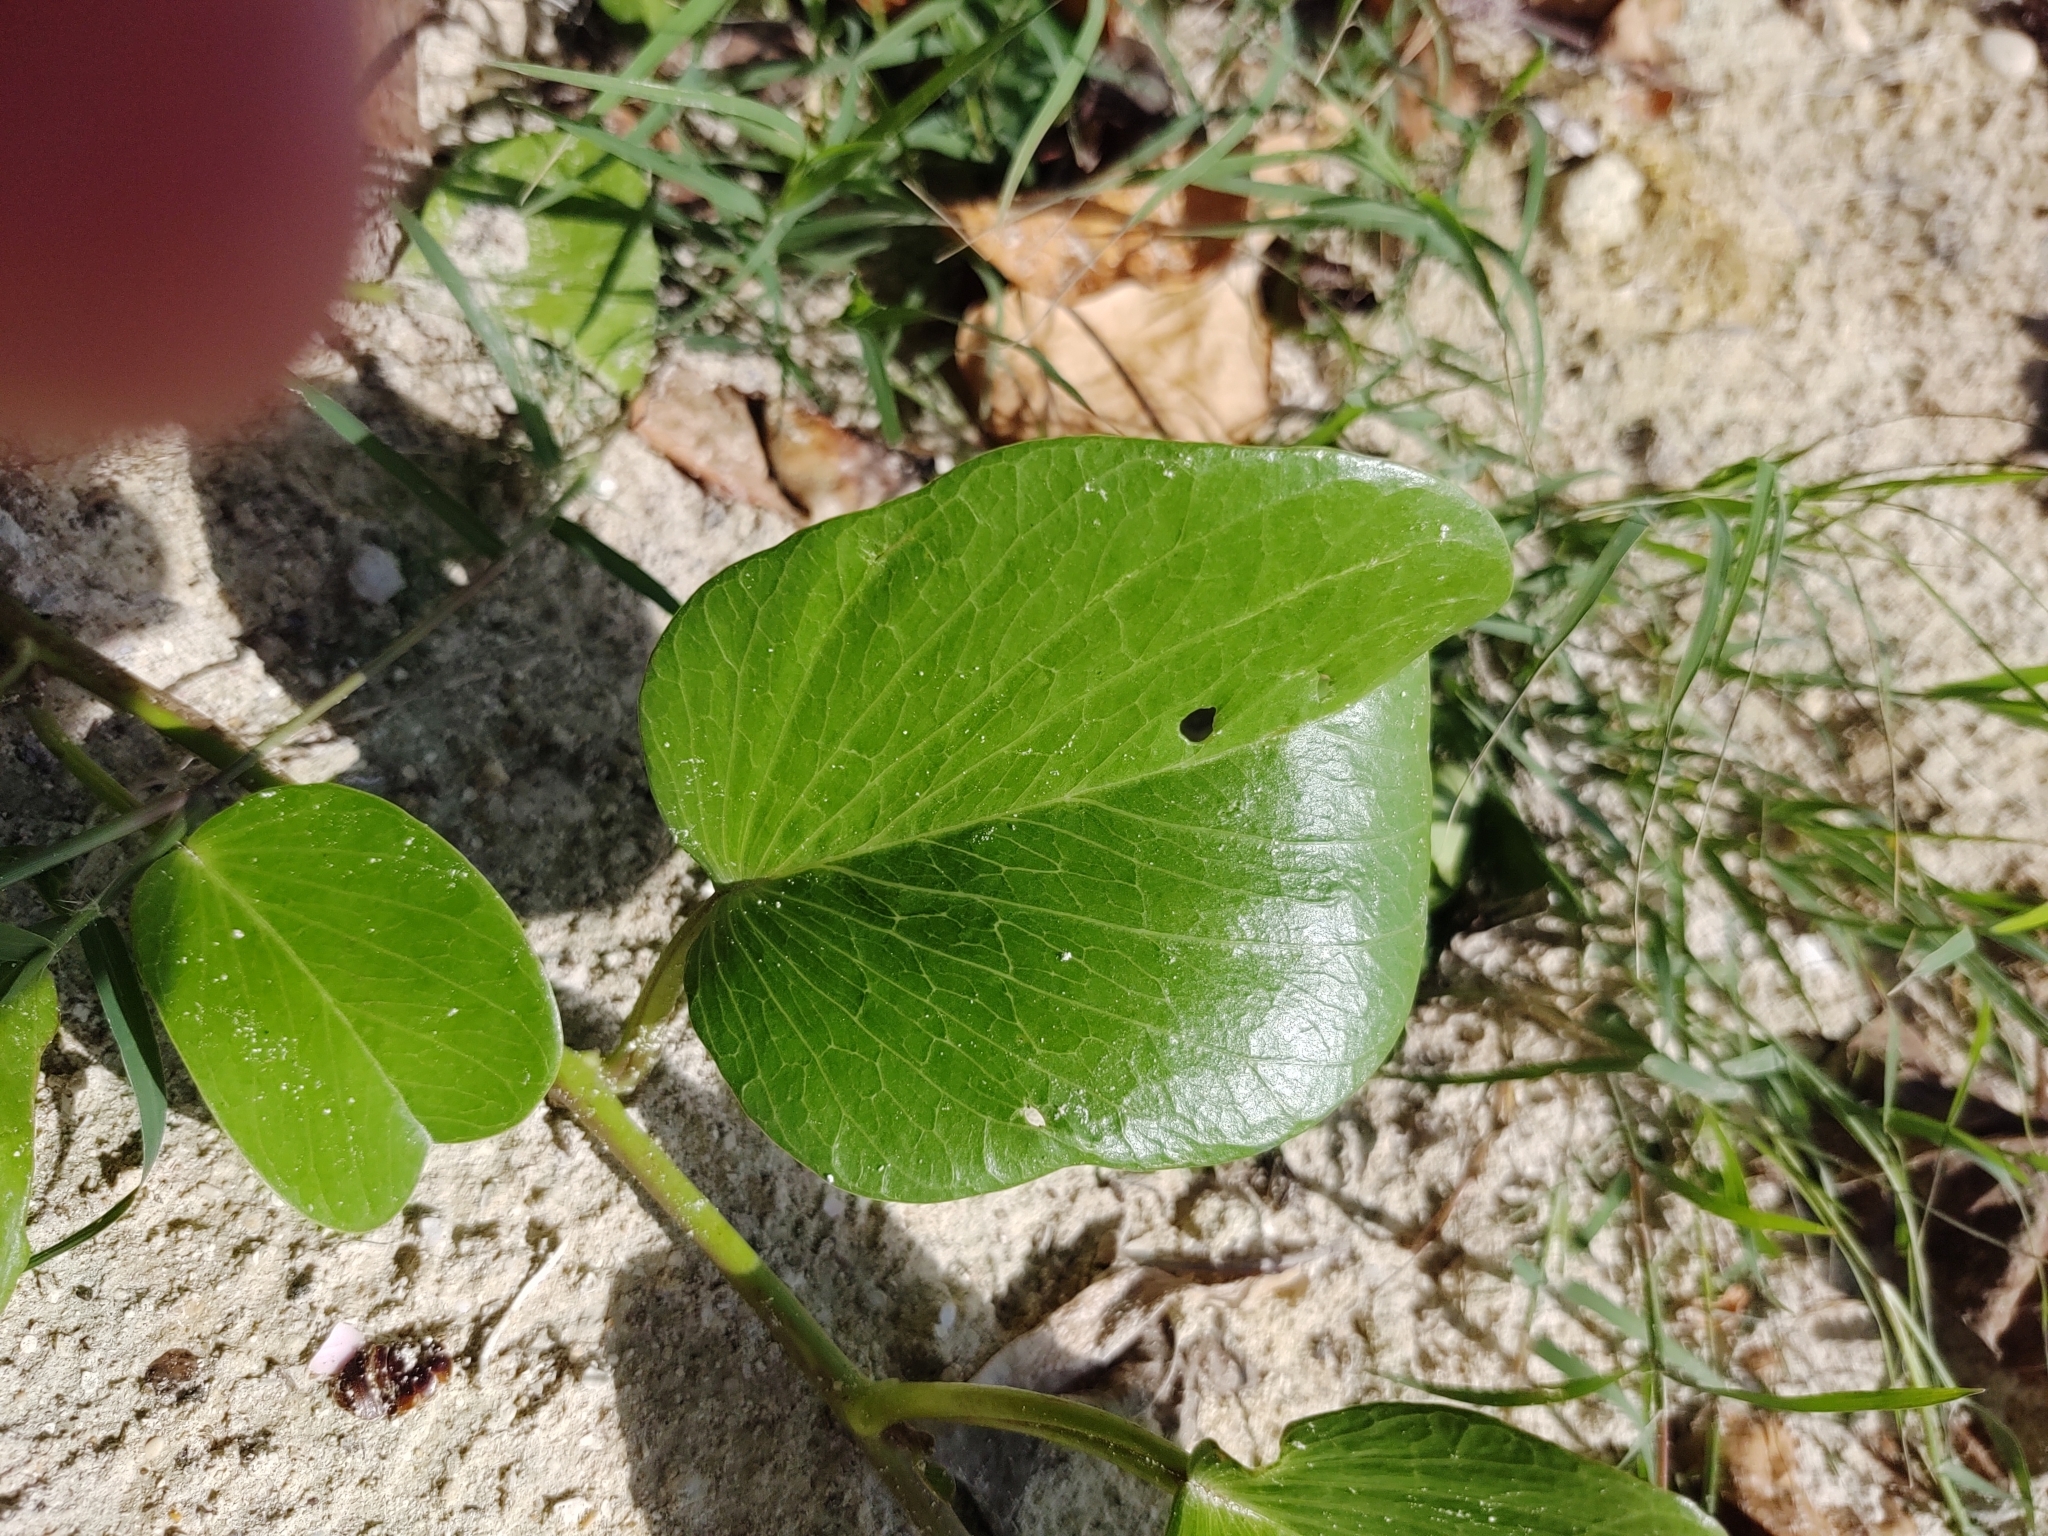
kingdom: Plantae
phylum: Tracheophyta
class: Magnoliopsida
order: Solanales
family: Convolvulaceae
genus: Ipomoea
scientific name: Ipomoea pes-caprae
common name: Beach morning glory
